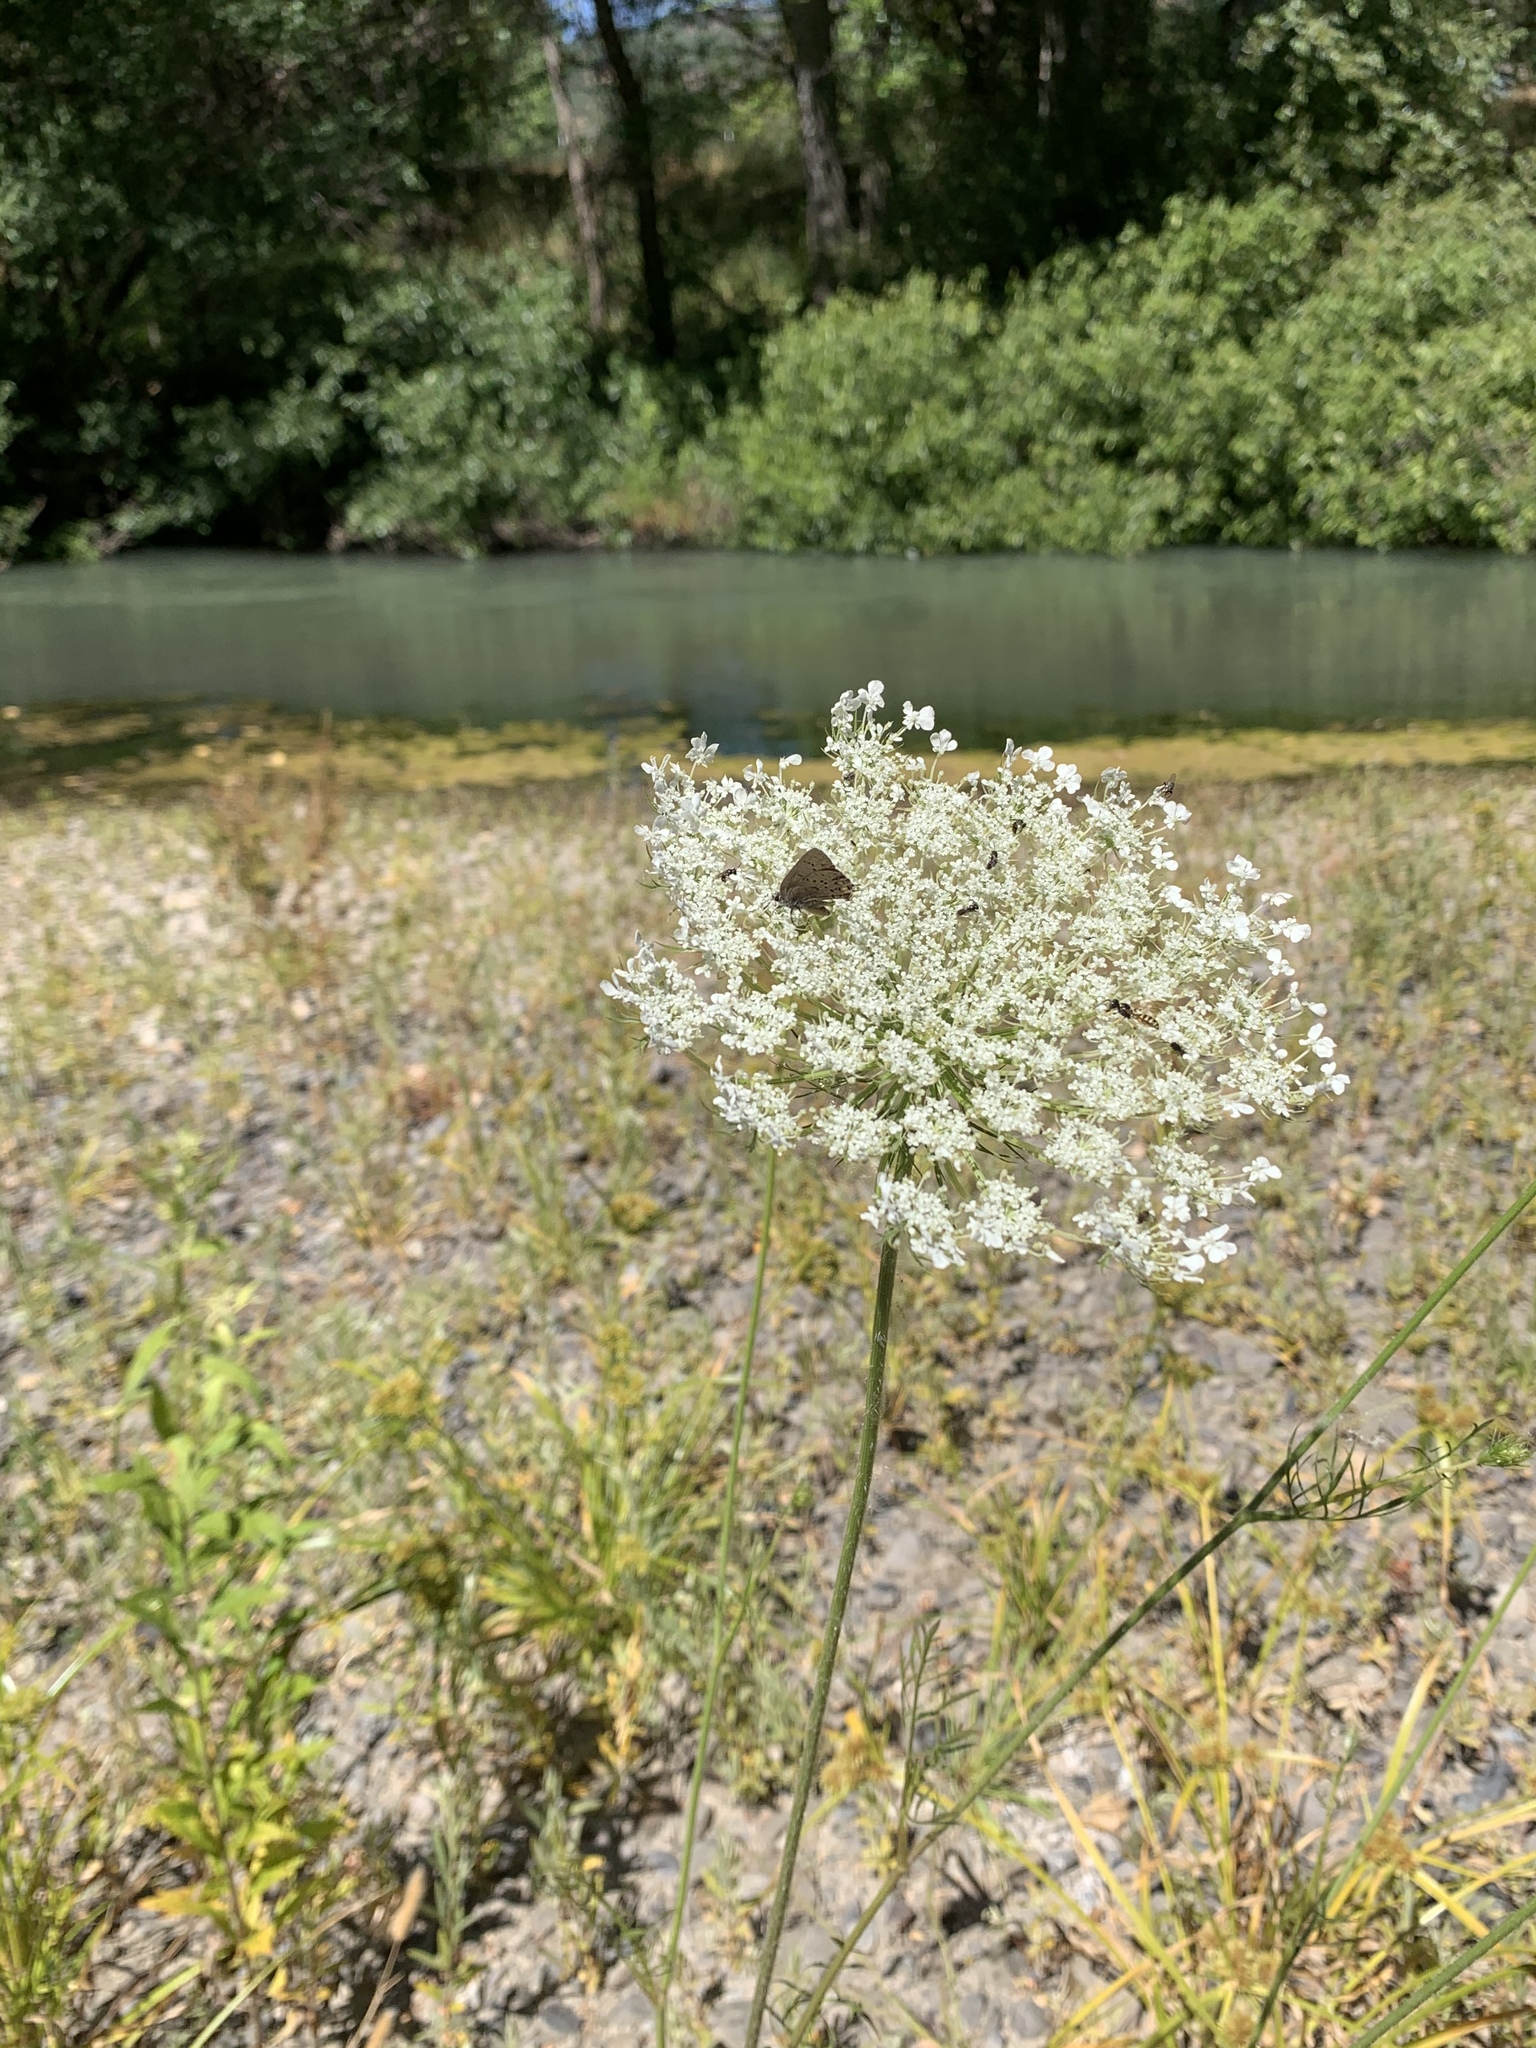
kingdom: Plantae
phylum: Tracheophyta
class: Magnoliopsida
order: Apiales
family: Apiaceae
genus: Daucus
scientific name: Daucus carota
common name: Wild carrot
